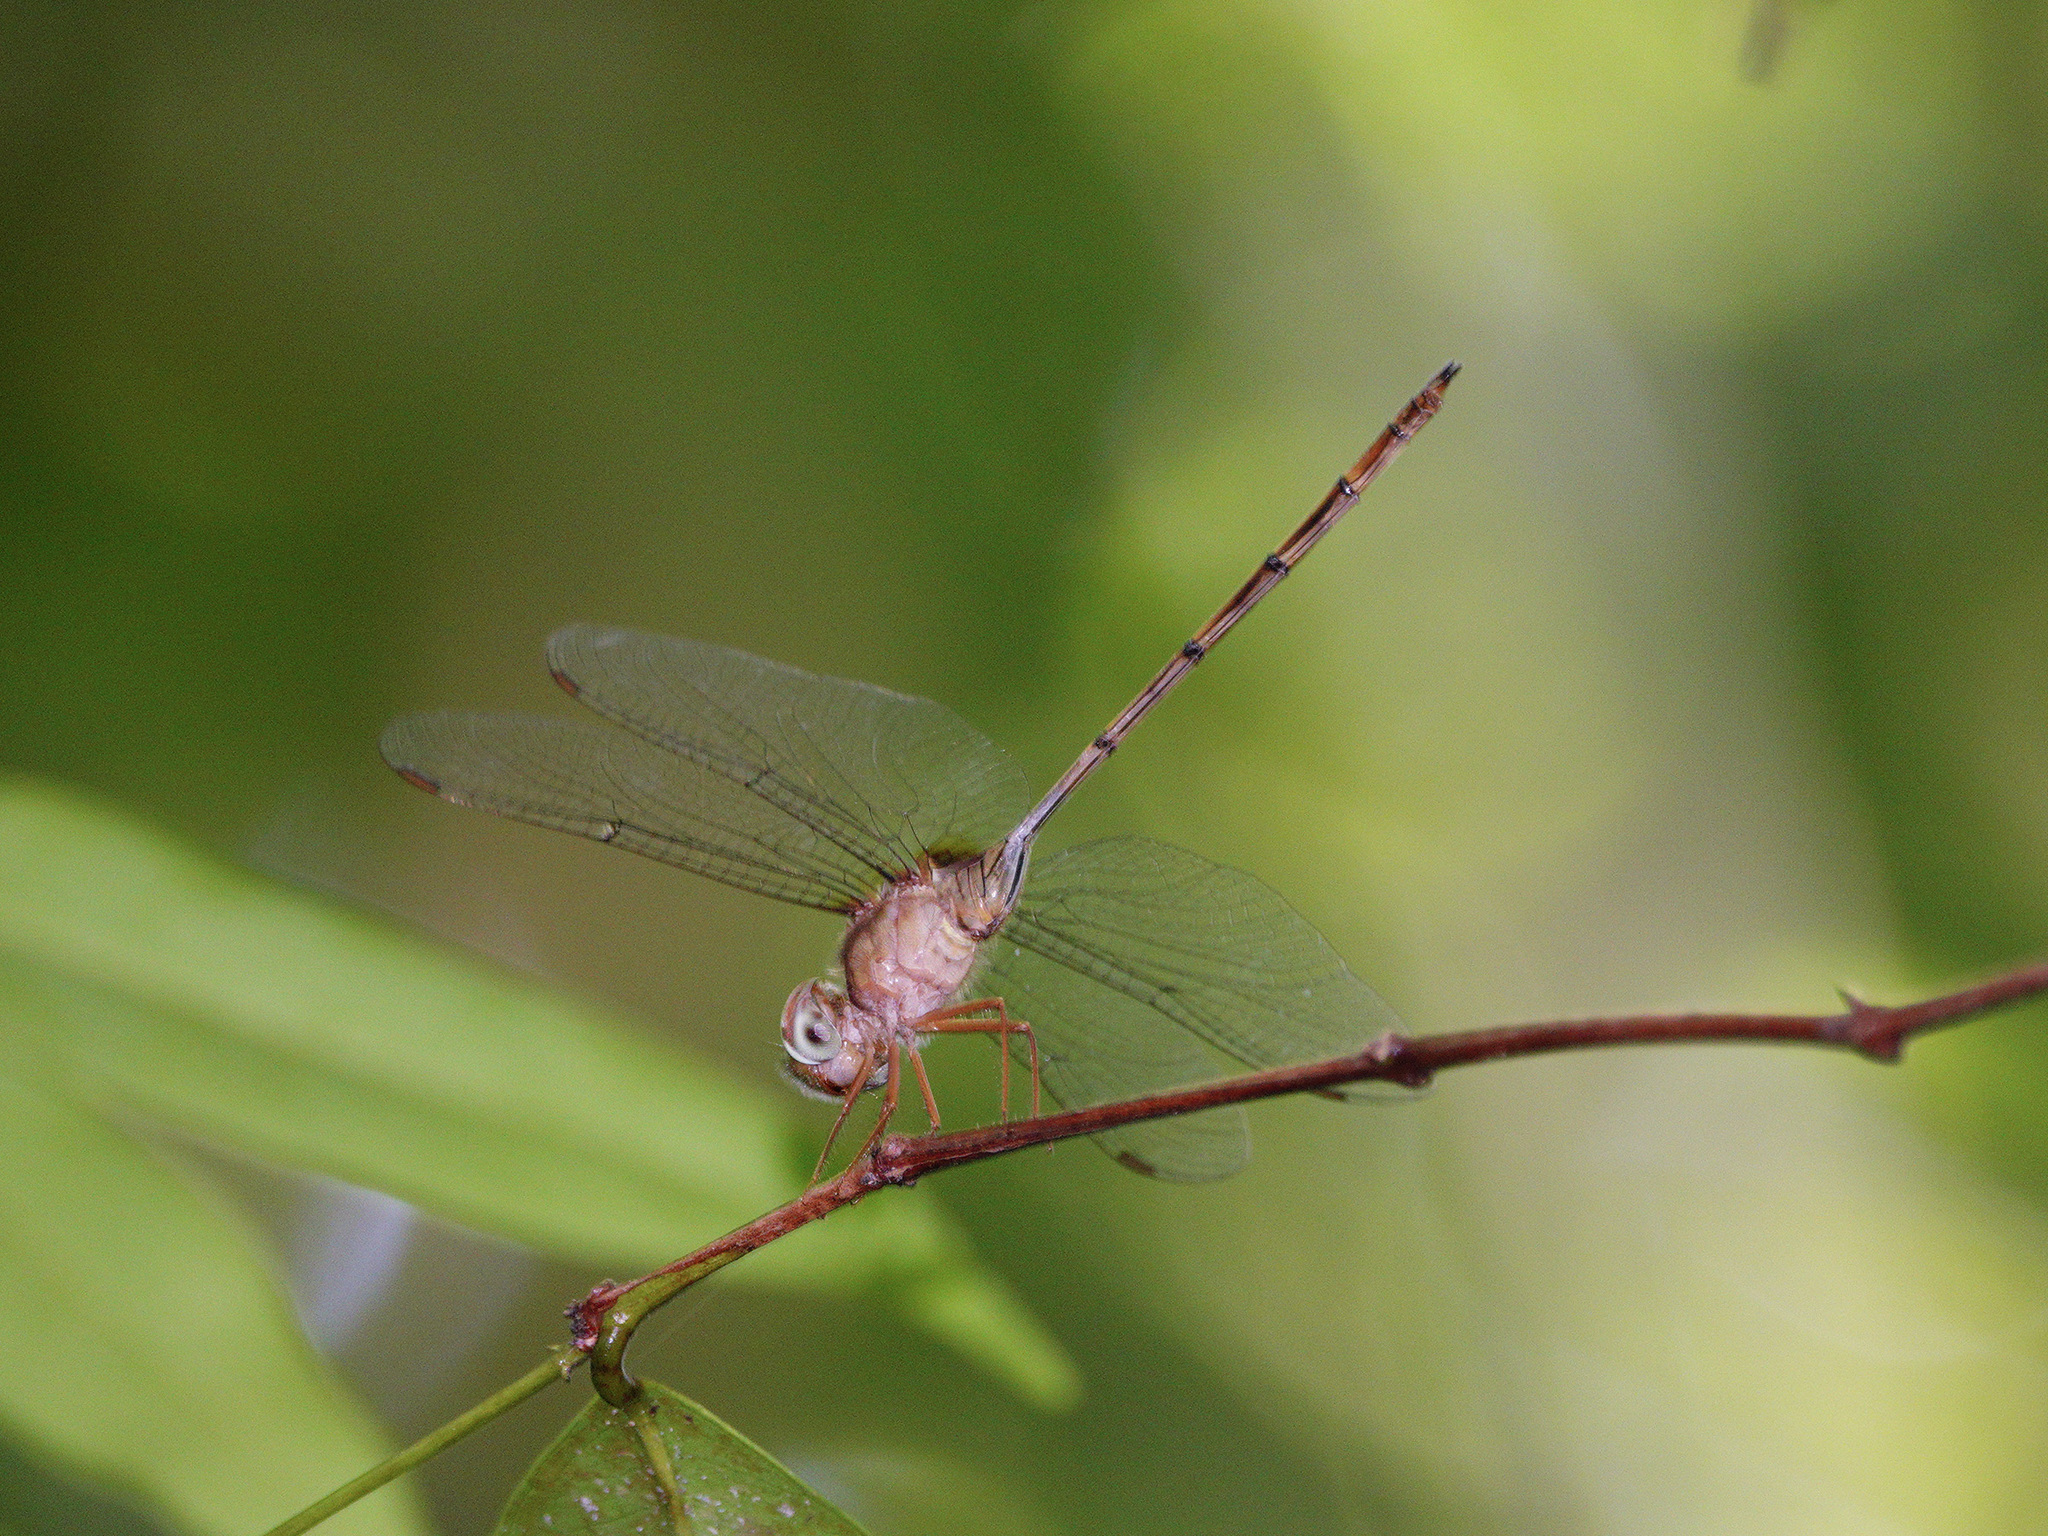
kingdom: Animalia
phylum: Arthropoda
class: Insecta
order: Odonata
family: Libellulidae
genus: Zyxomma
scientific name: Zyxomma petiolatum
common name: Dingy dusk-darter
